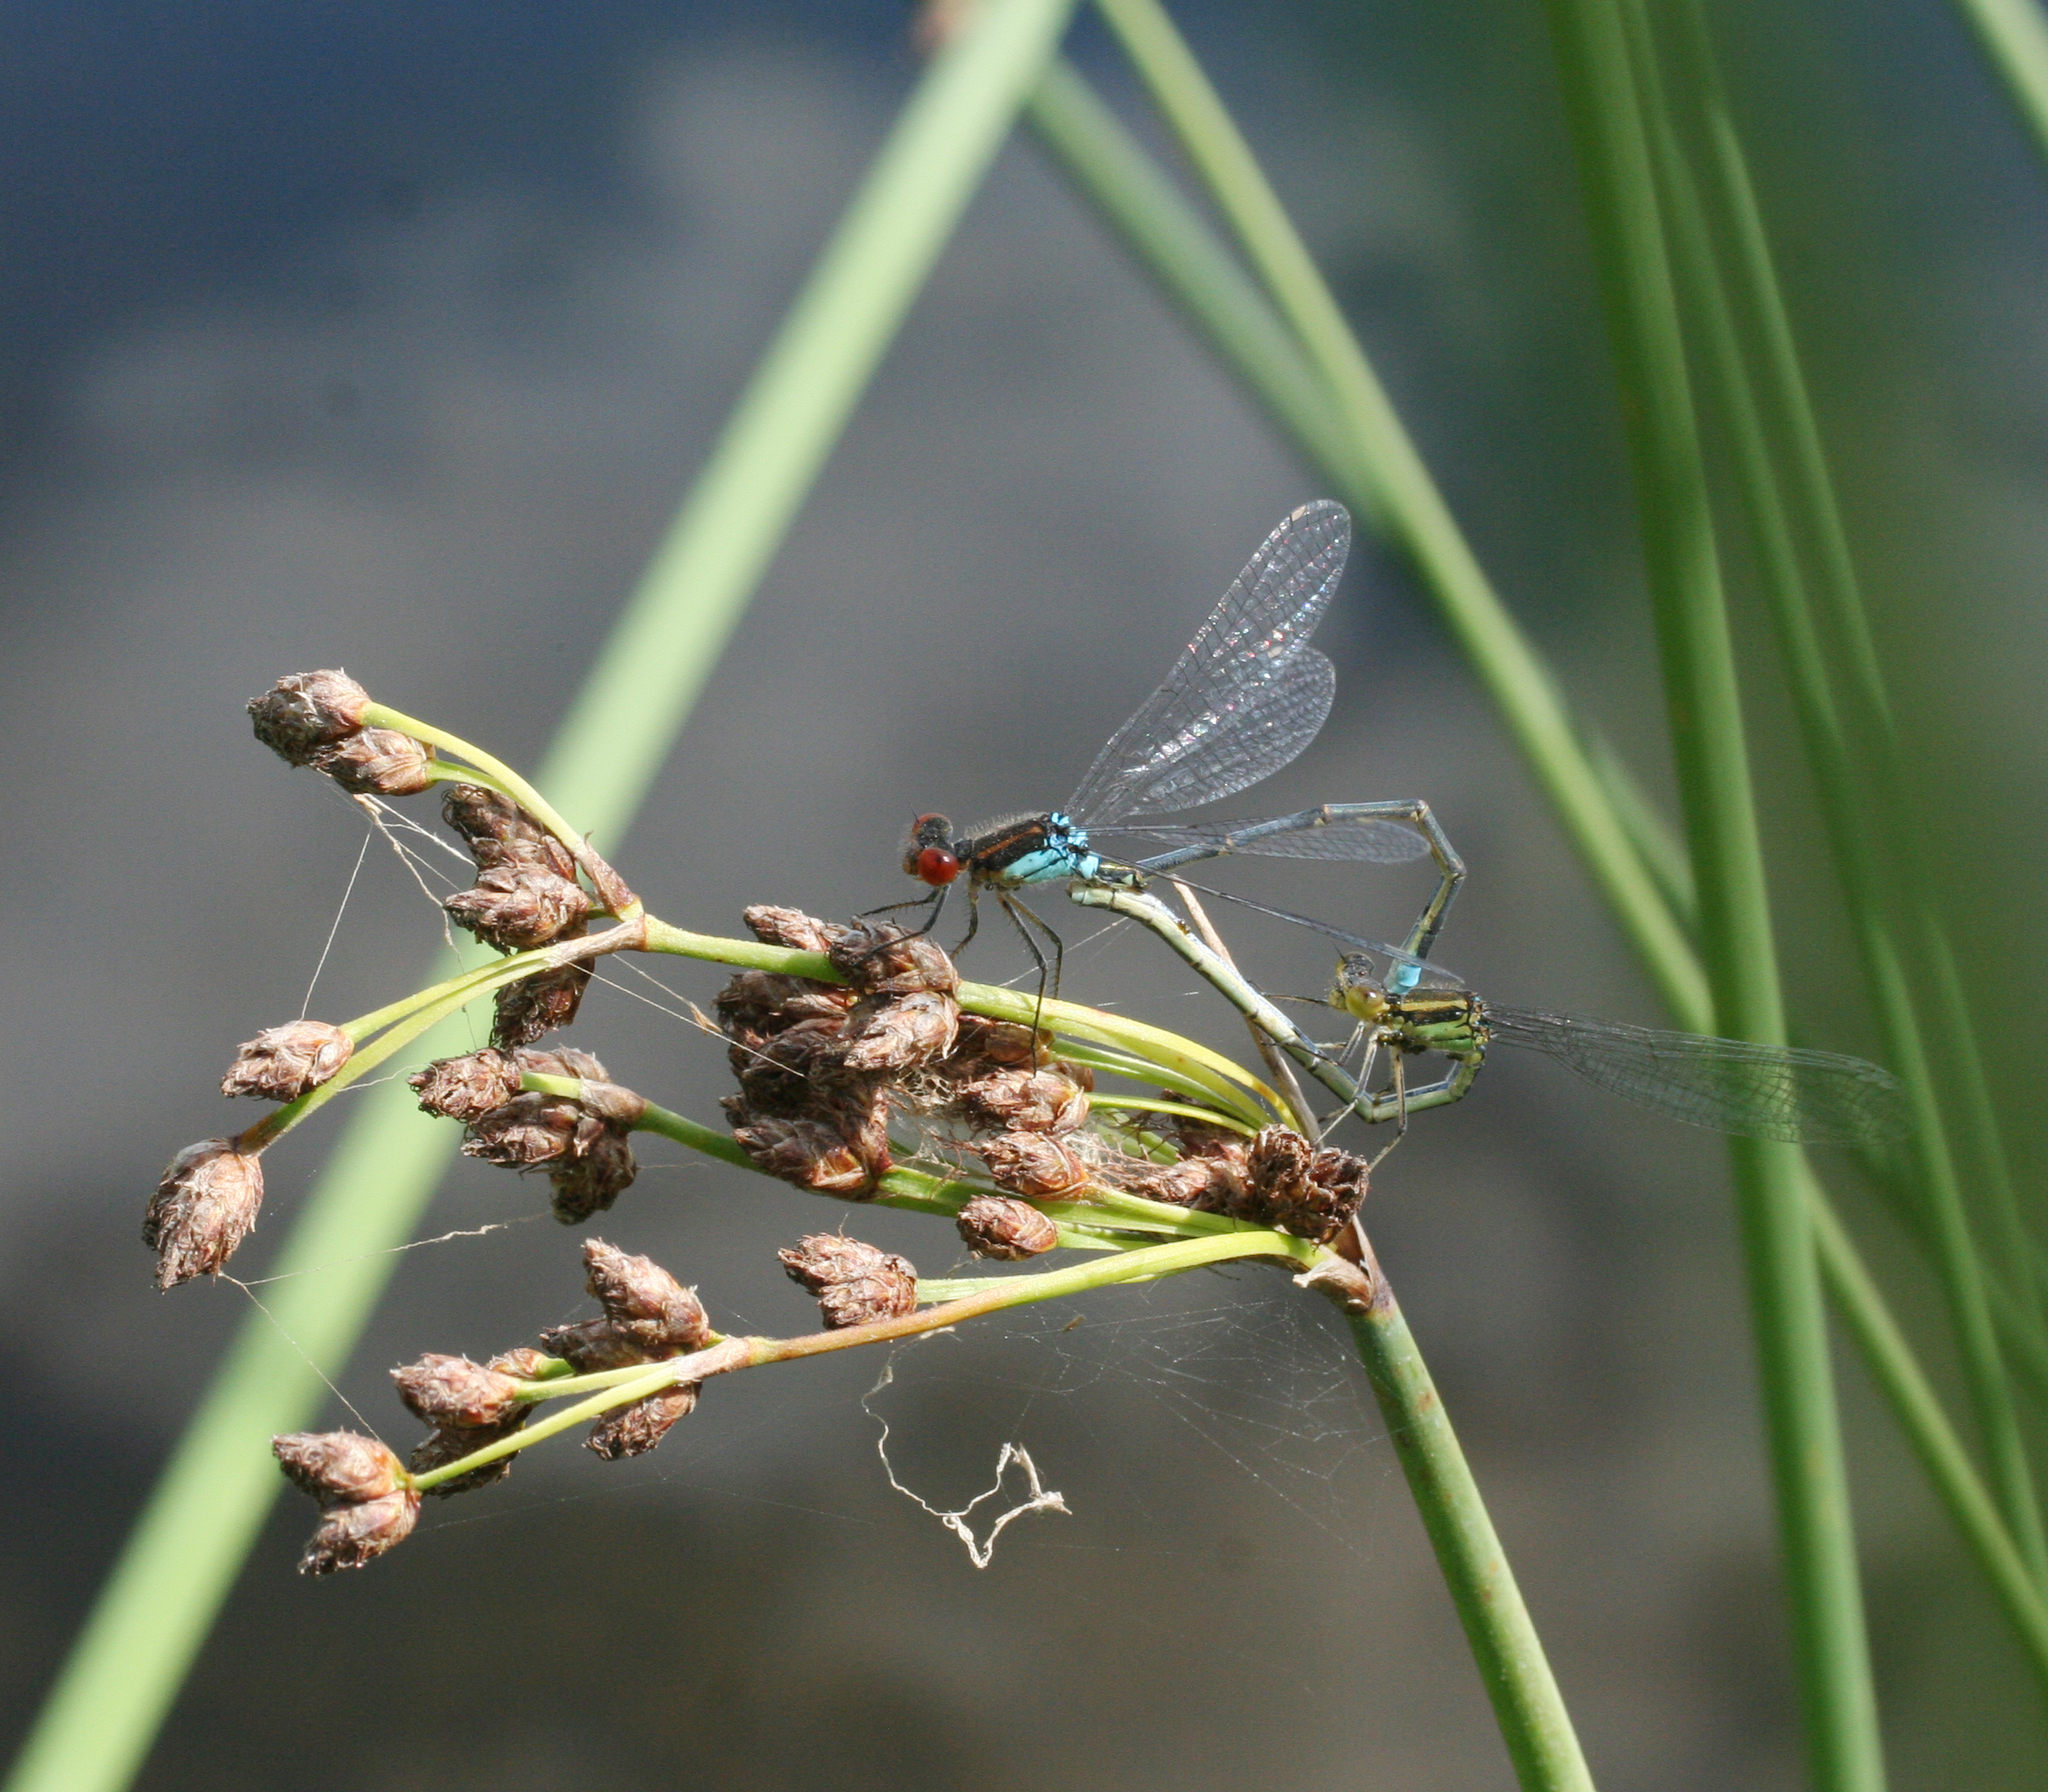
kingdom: Animalia
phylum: Arthropoda
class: Insecta
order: Odonata
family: Coenagrionidae
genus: Erythromma
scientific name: Erythromma najas
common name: Red-eyed damselfly
